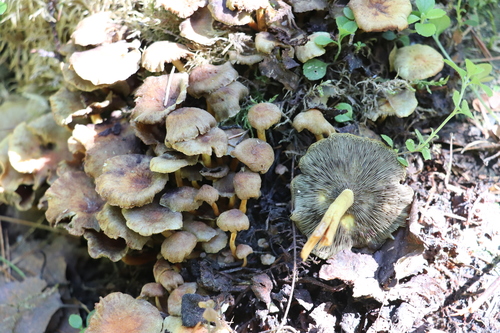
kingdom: Fungi
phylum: Basidiomycota
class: Agaricomycetes
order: Agaricales
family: Strophariaceae
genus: Hypholoma
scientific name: Hypholoma fasciculare
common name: Sulphur tuft
